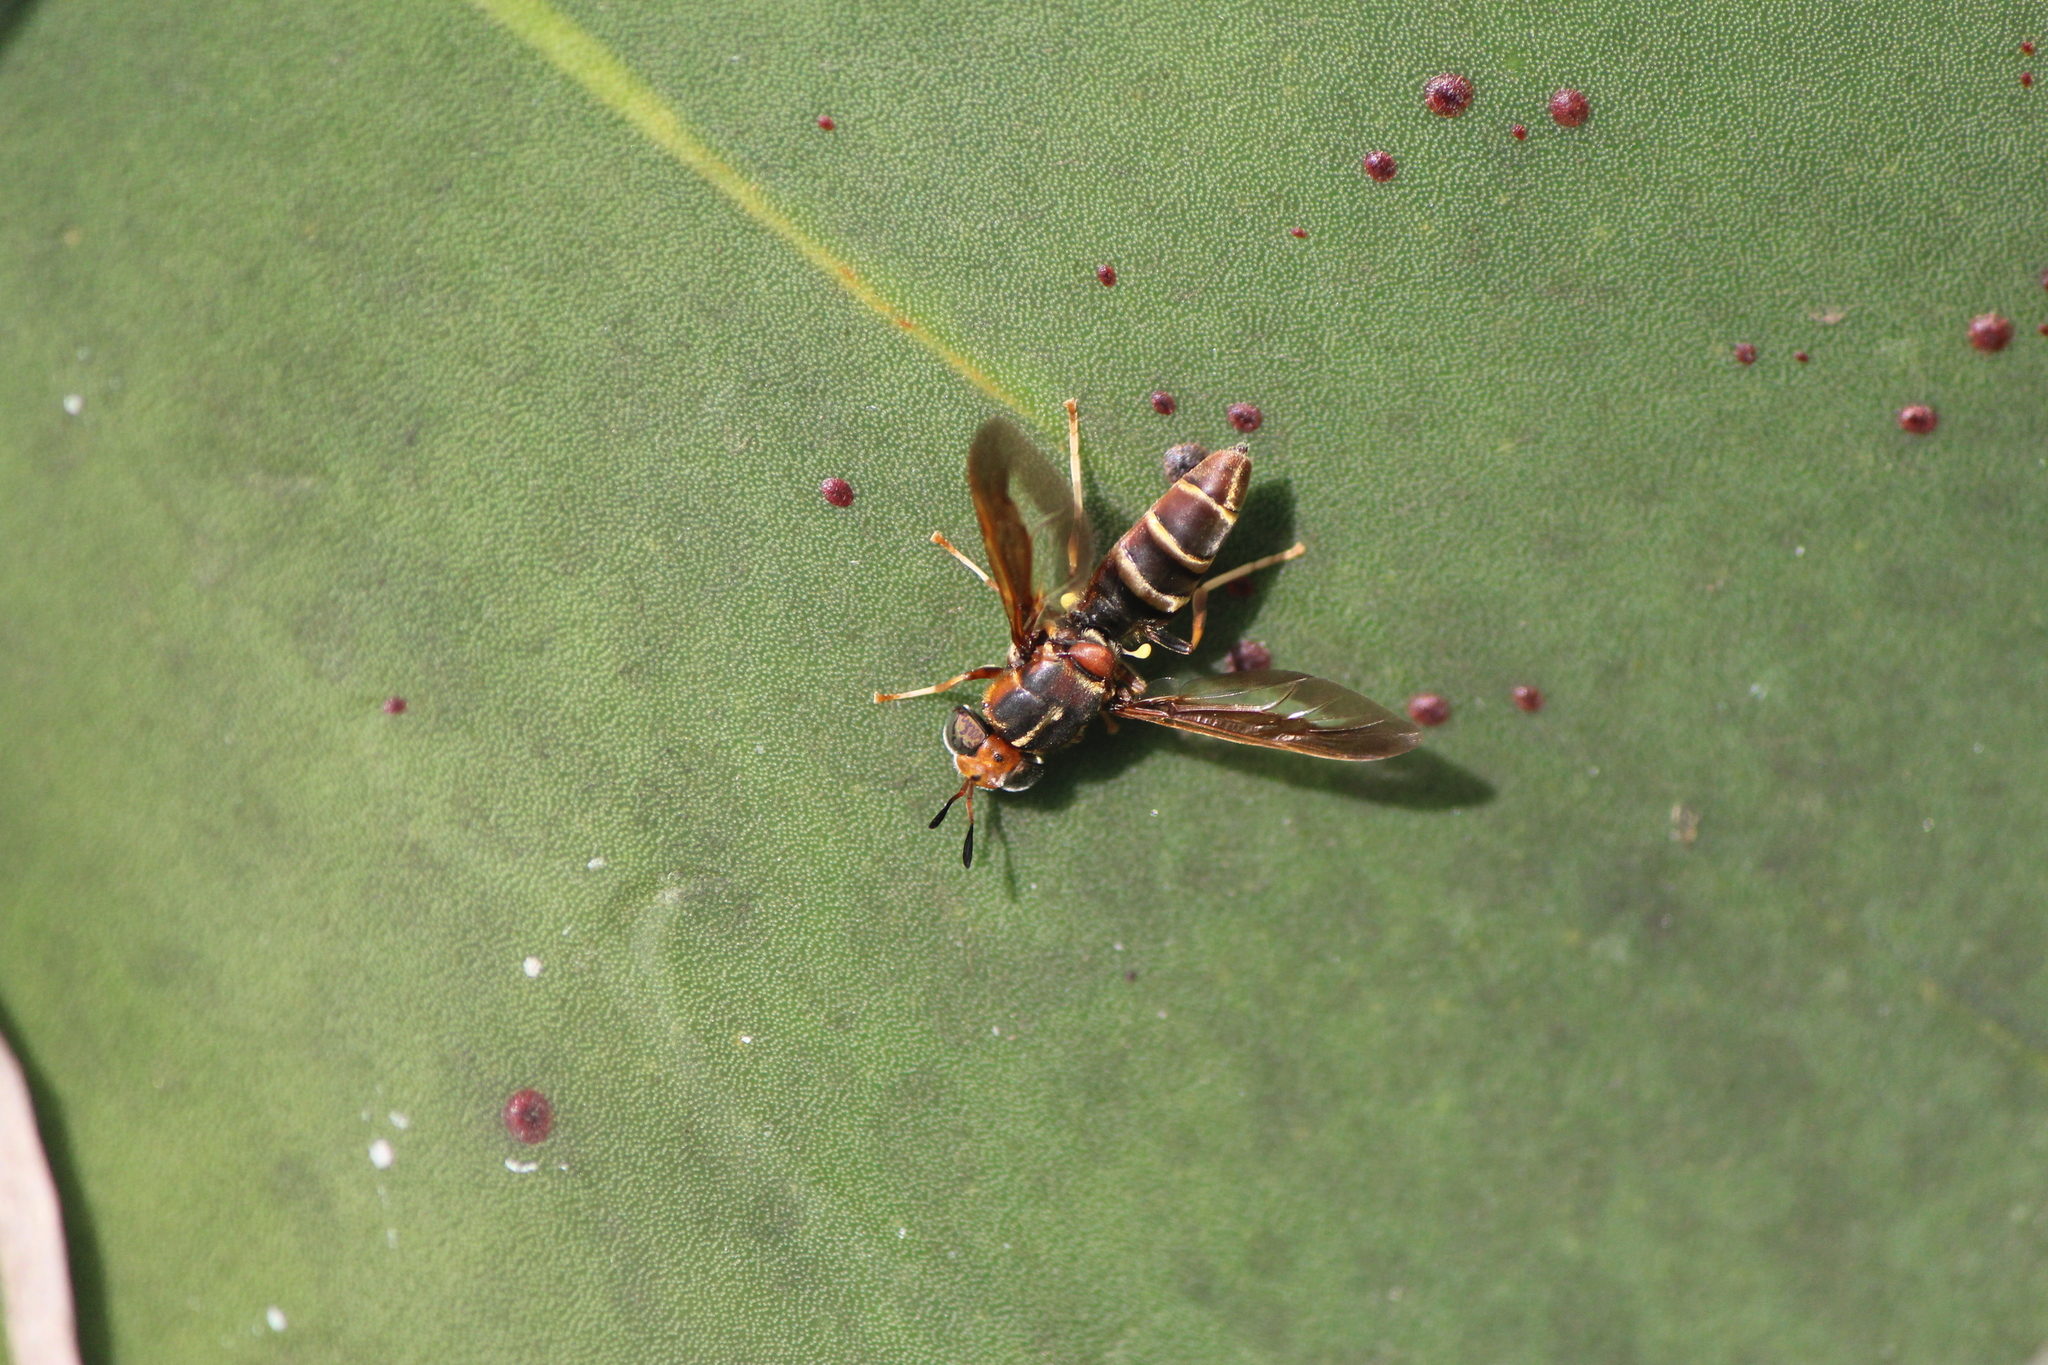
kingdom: Animalia
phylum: Arthropoda
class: Insecta
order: Diptera
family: Stratiomyidae
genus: Hermetia
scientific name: Hermetia comstocki
